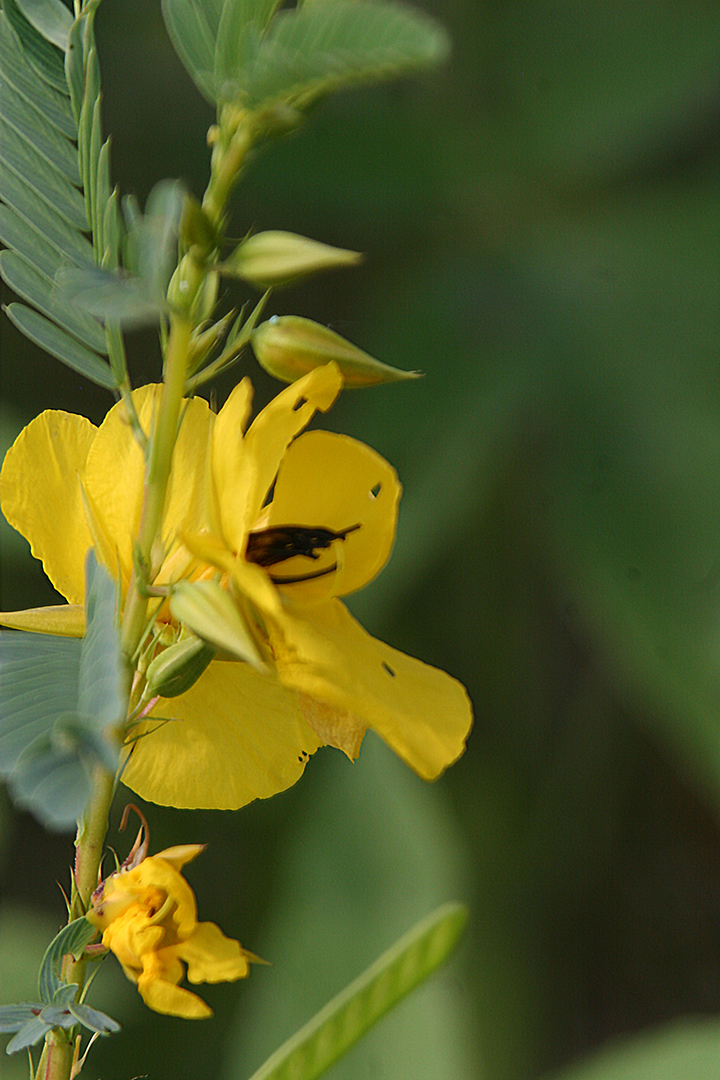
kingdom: Plantae
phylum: Tracheophyta
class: Magnoliopsida
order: Fabales
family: Fabaceae
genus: Chamaecrista
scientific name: Chamaecrista fasciculata
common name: Golden cassia
